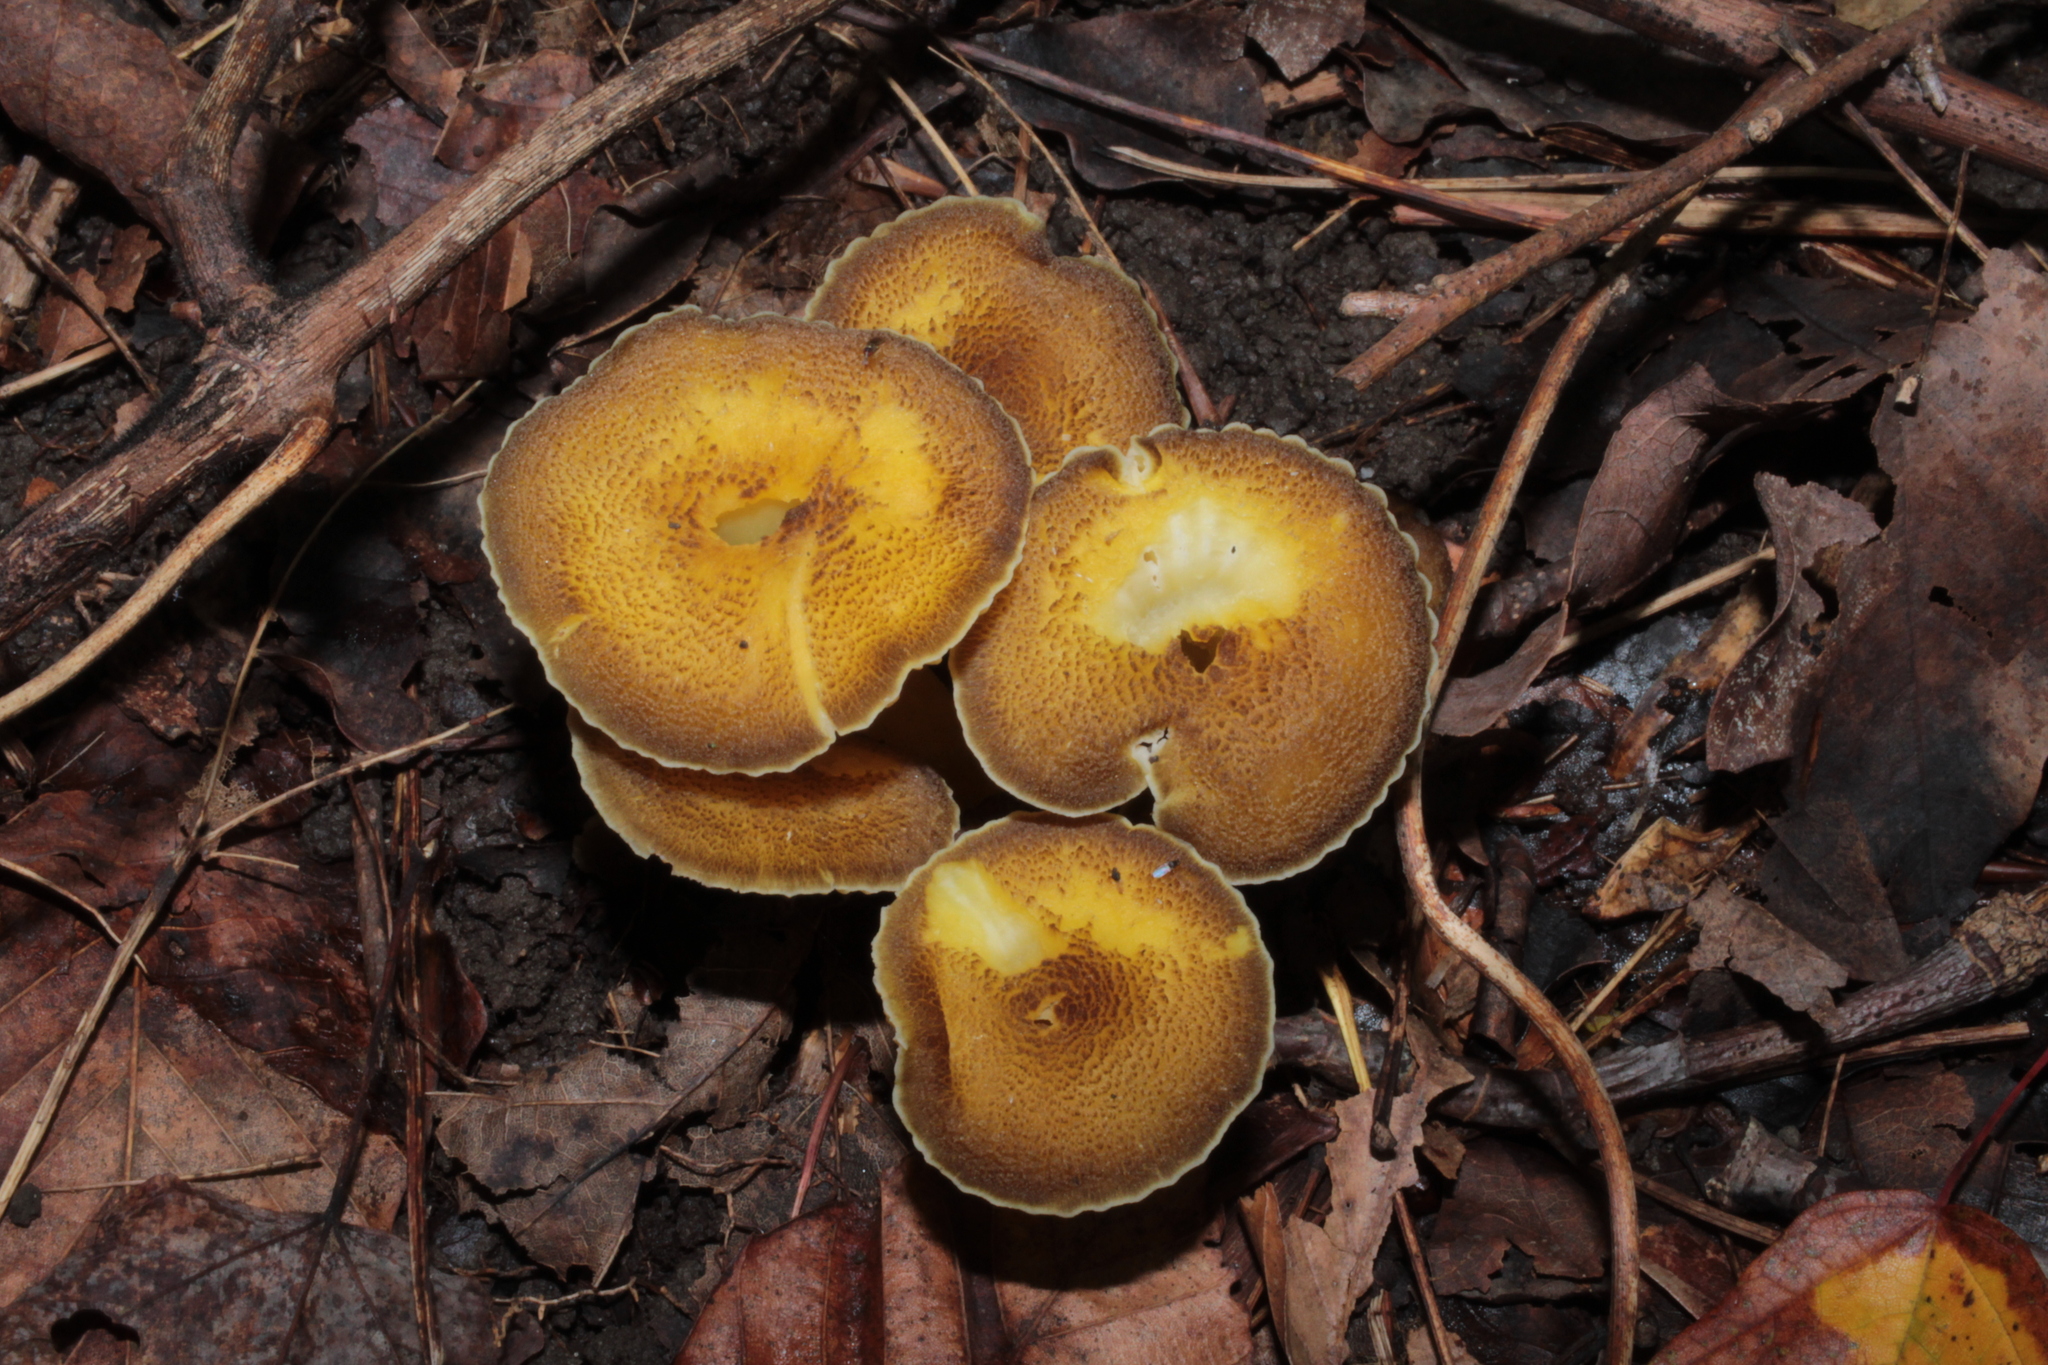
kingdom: Fungi
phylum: Basidiomycota
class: Agaricomycetes
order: Agaricales
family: Hygrophoraceae
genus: Hygrocybe
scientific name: Hygrocybe caespitosa
